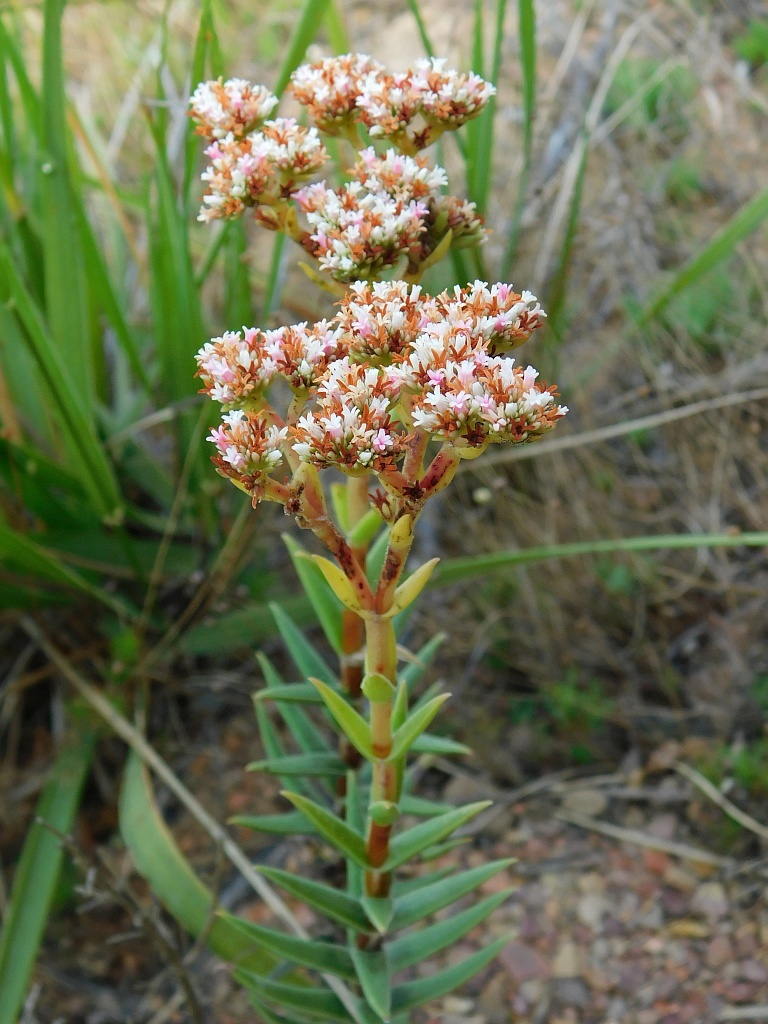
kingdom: Plantae
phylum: Tracheophyta
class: Magnoliopsida
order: Saxifragales
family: Crassulaceae
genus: Crassula
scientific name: Crassula subulata
